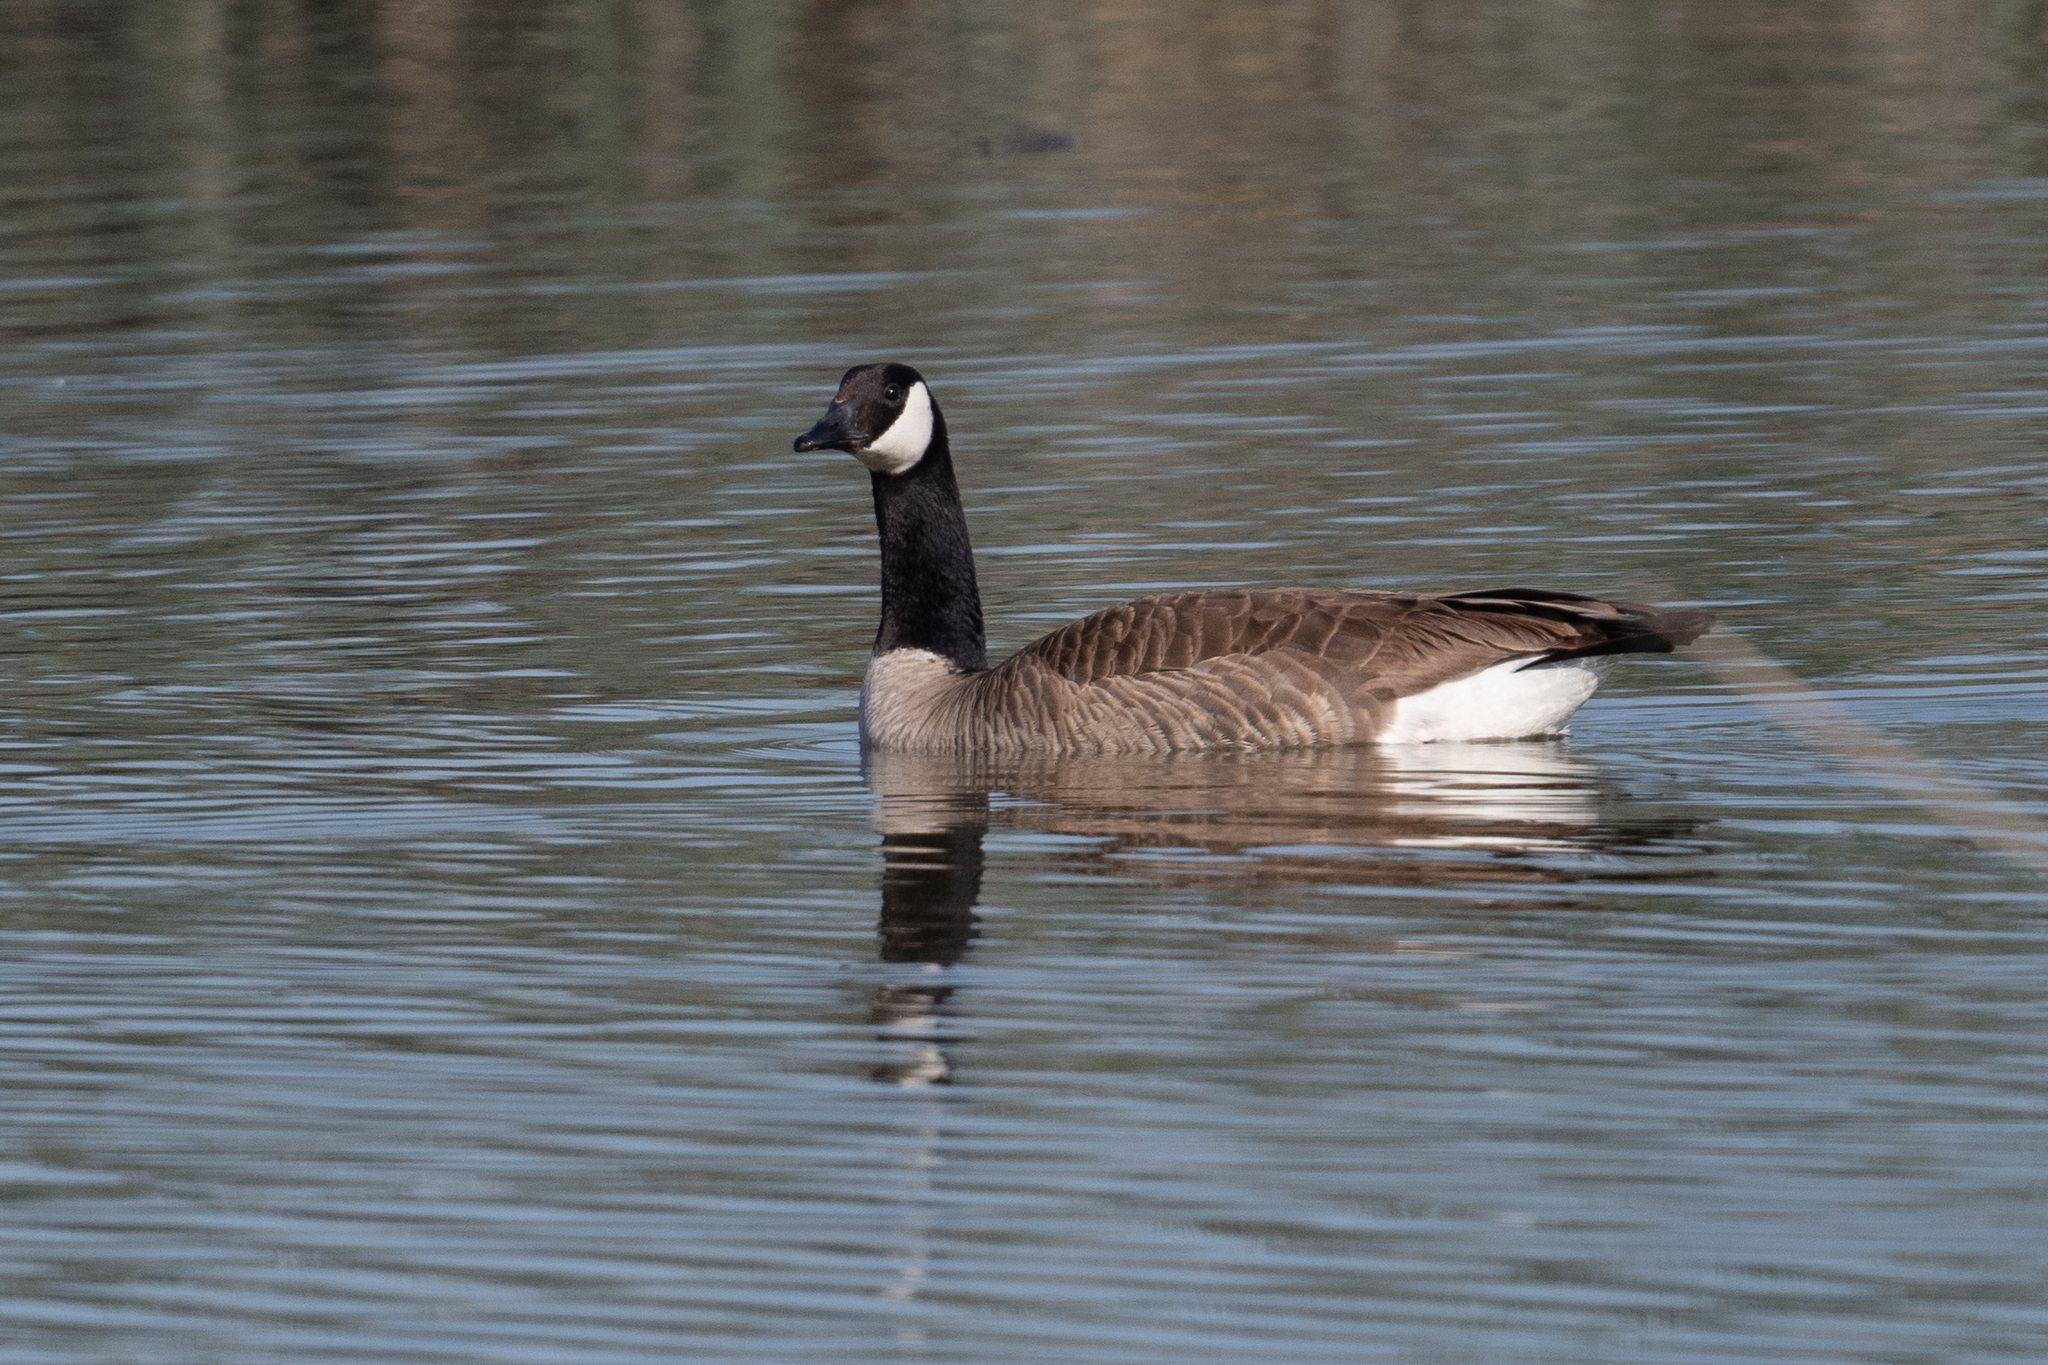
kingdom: Animalia
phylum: Chordata
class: Aves
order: Anseriformes
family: Anatidae
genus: Branta
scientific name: Branta canadensis
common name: Canada goose
